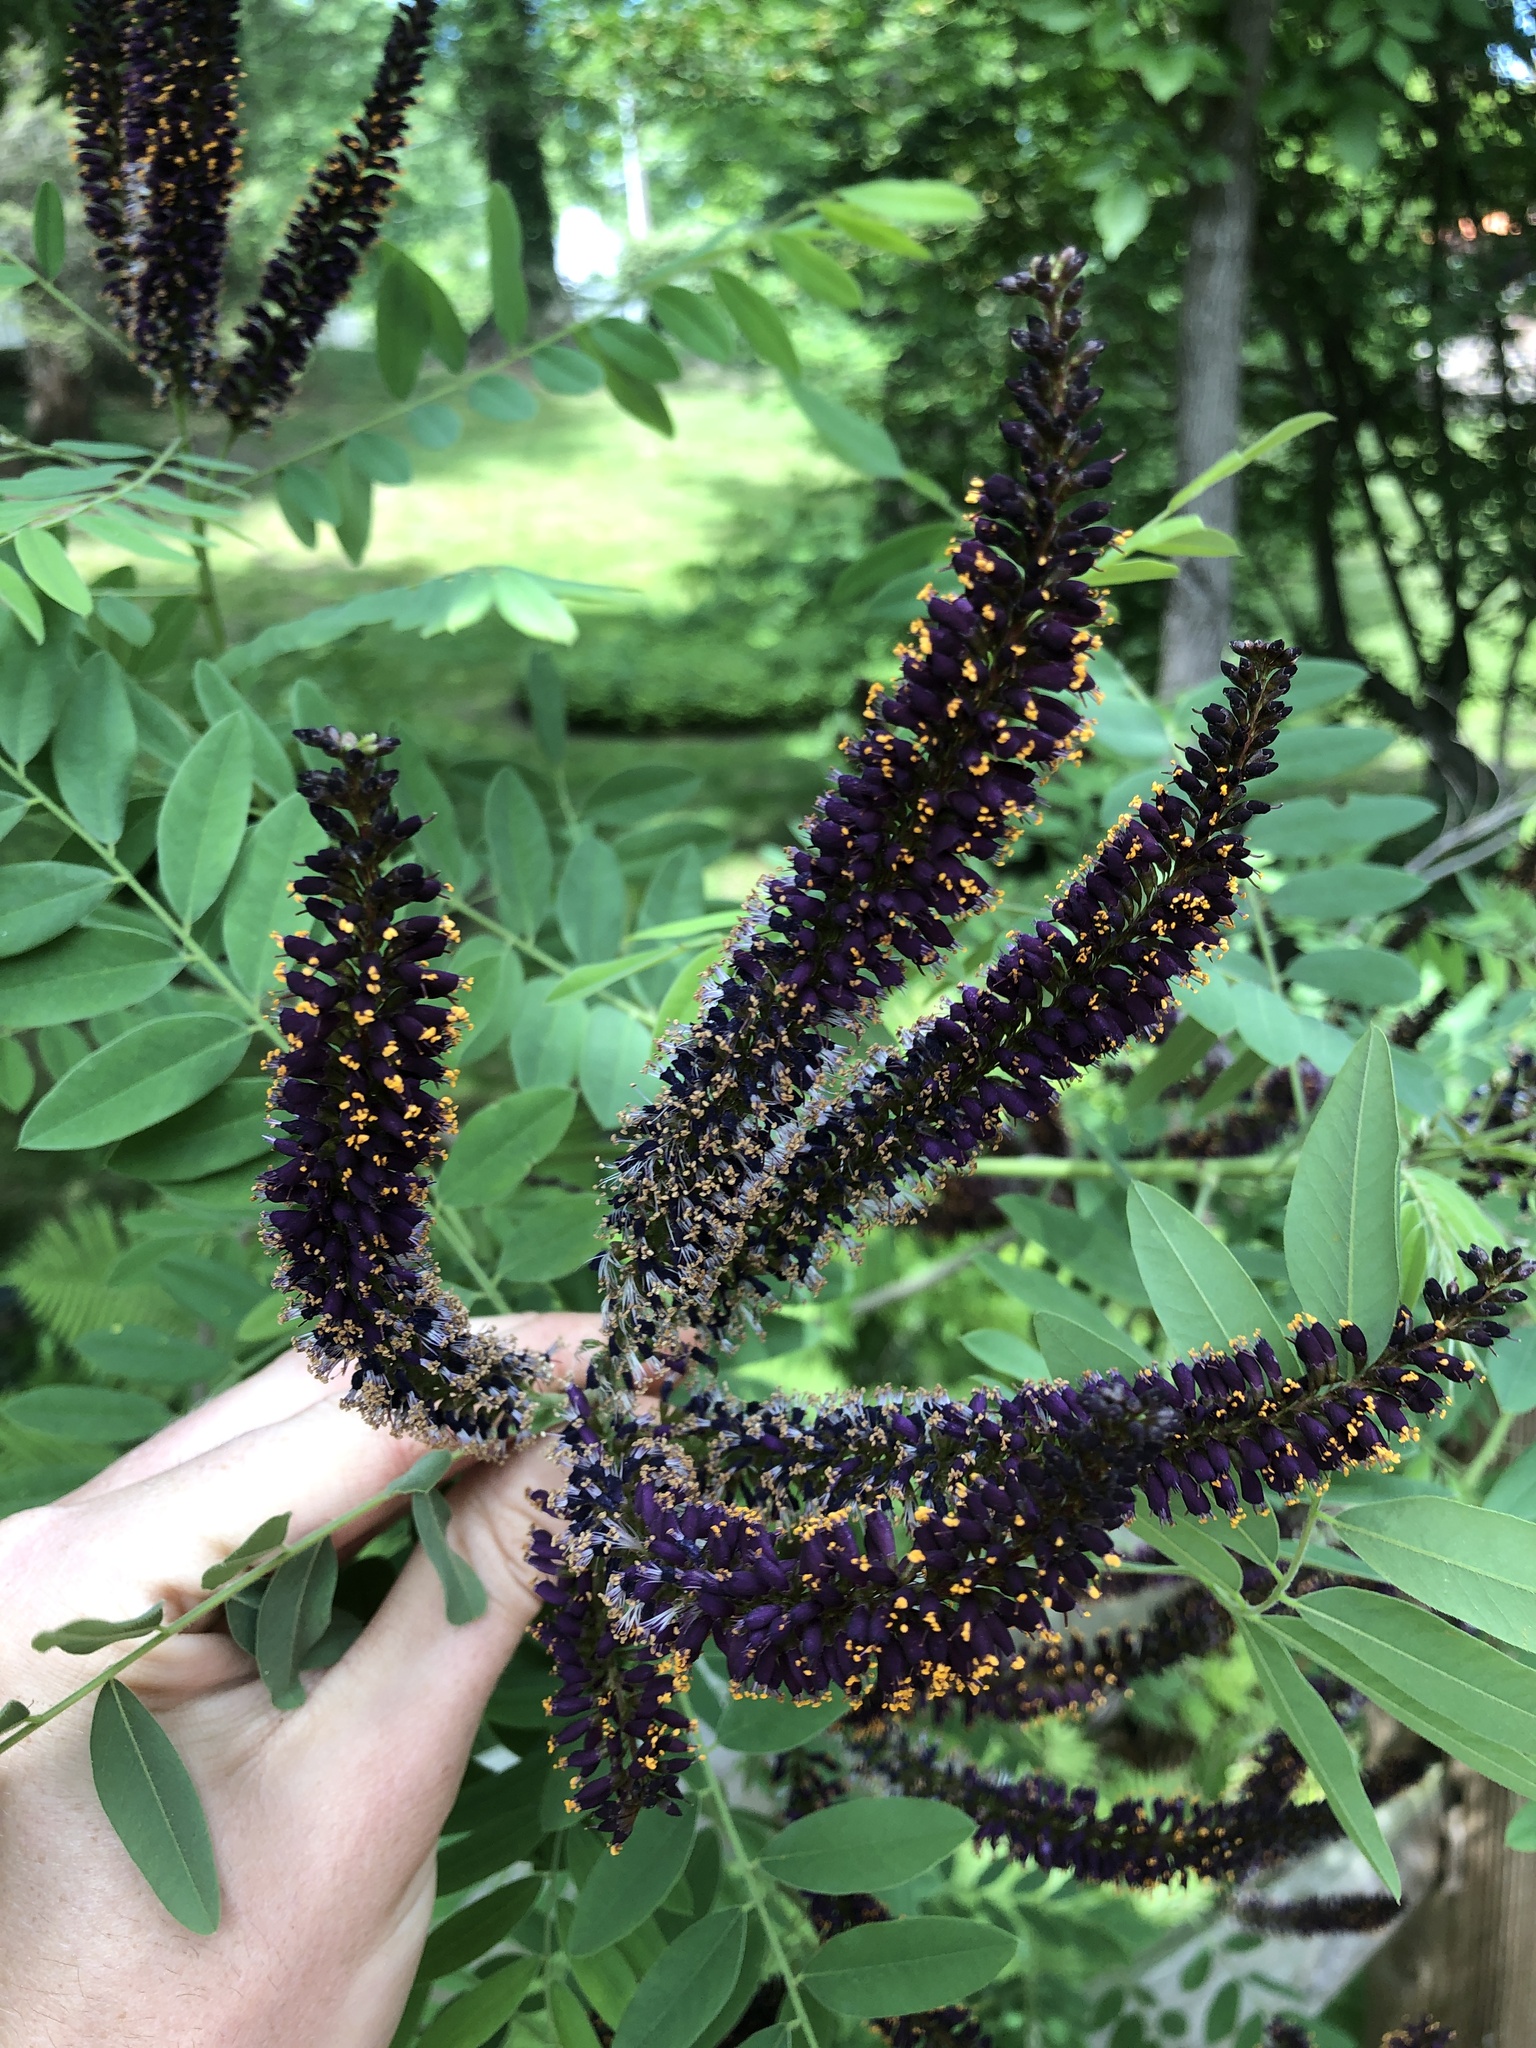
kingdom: Plantae
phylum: Tracheophyta
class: Magnoliopsida
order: Fabales
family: Fabaceae
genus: Amorpha
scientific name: Amorpha fruticosa
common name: False indigo
